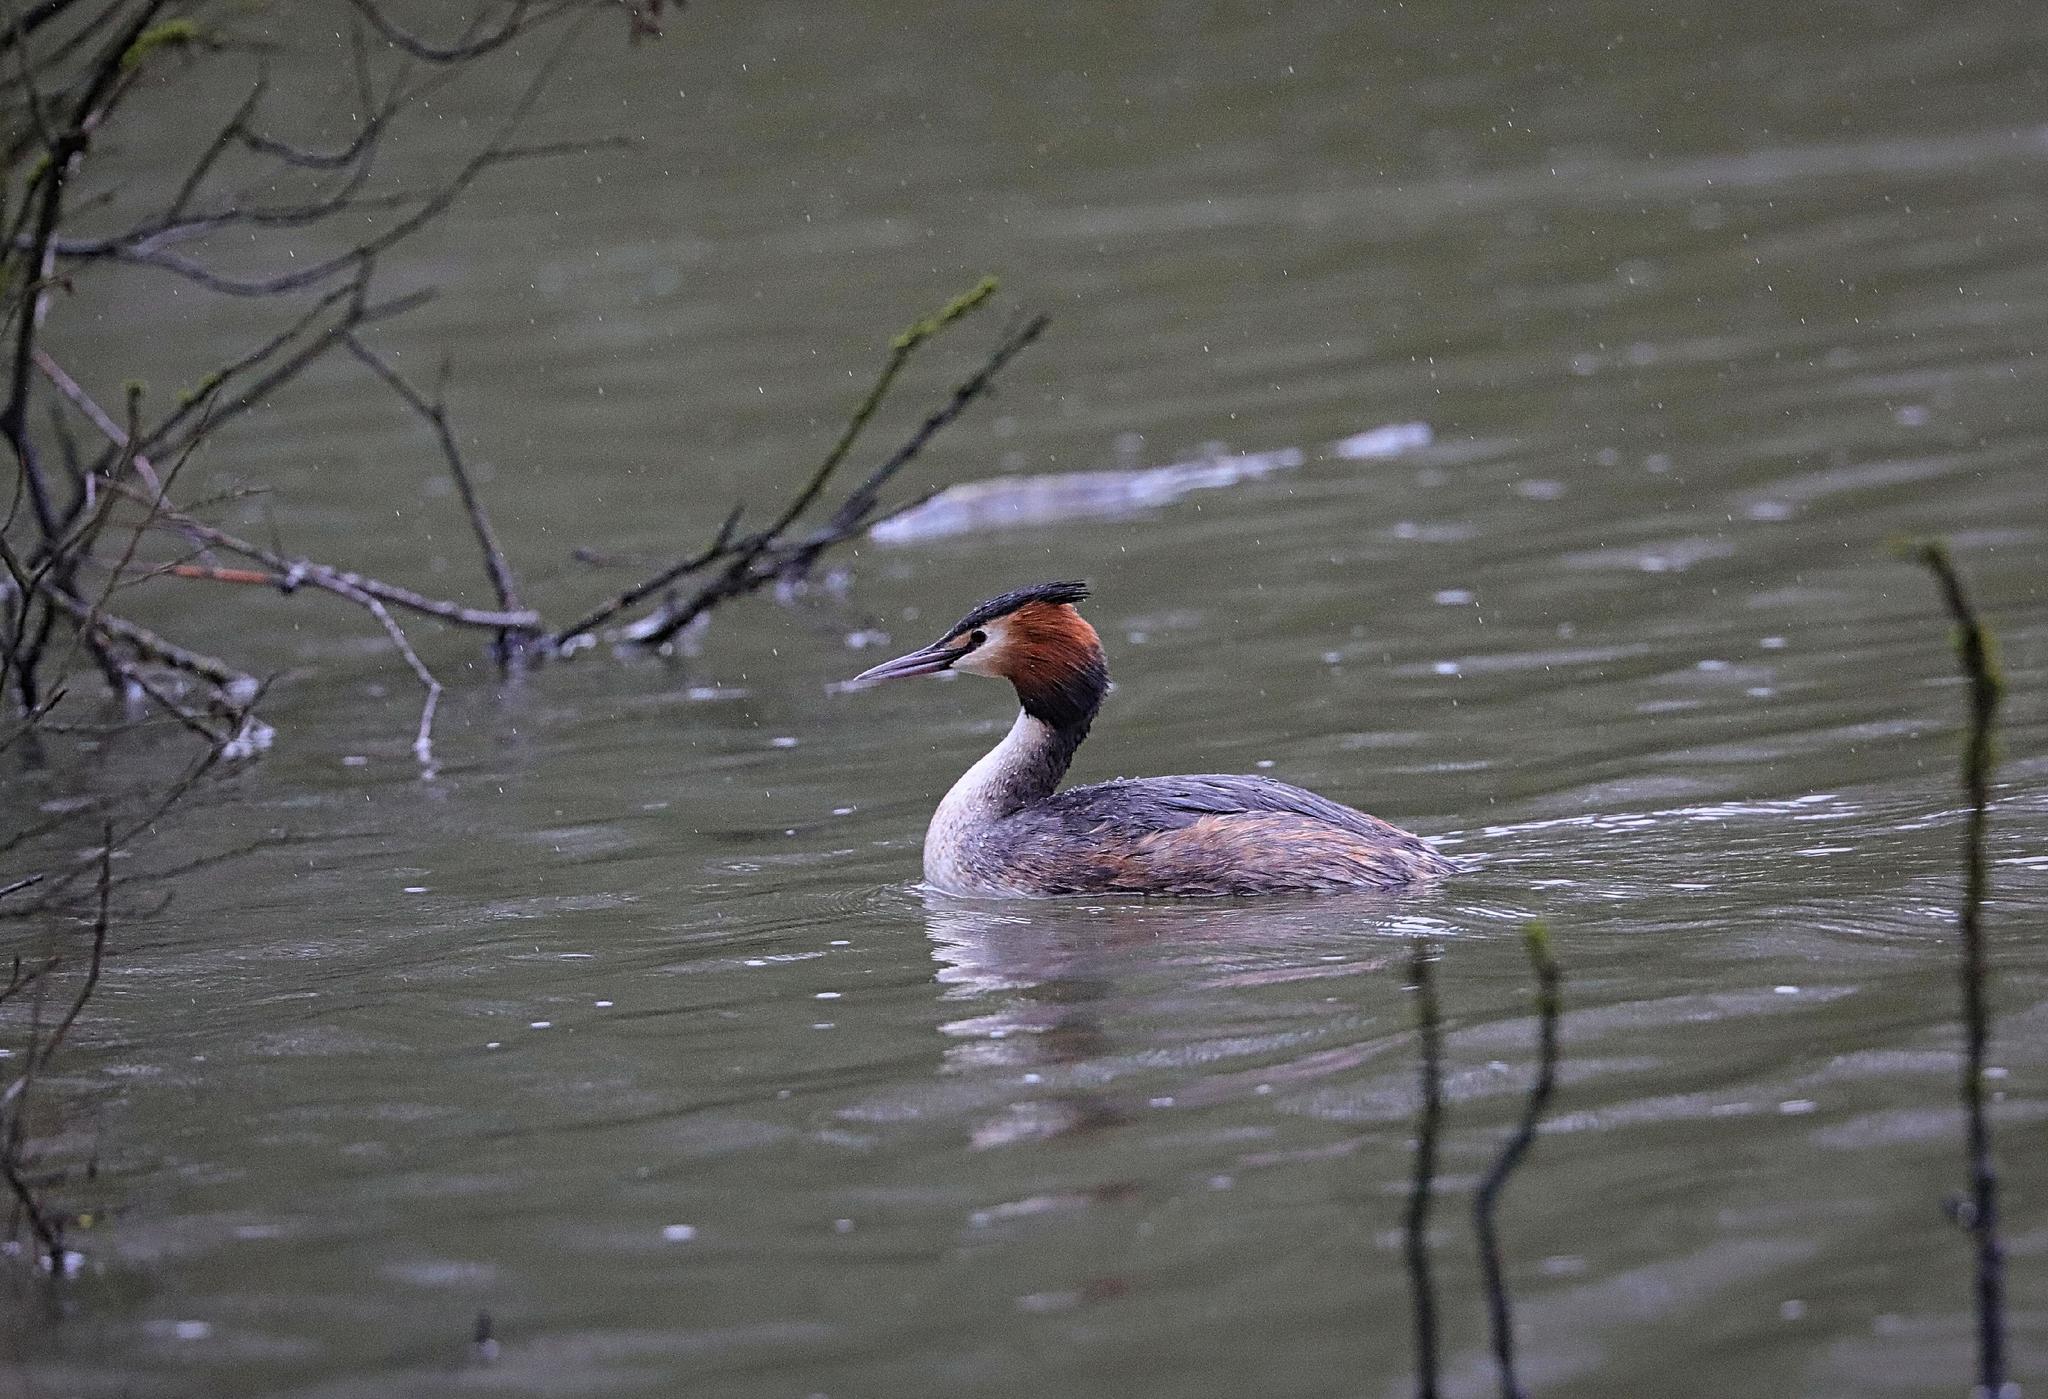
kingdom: Animalia
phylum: Chordata
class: Aves
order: Podicipediformes
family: Podicipedidae
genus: Podiceps
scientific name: Podiceps cristatus
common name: Great crested grebe
